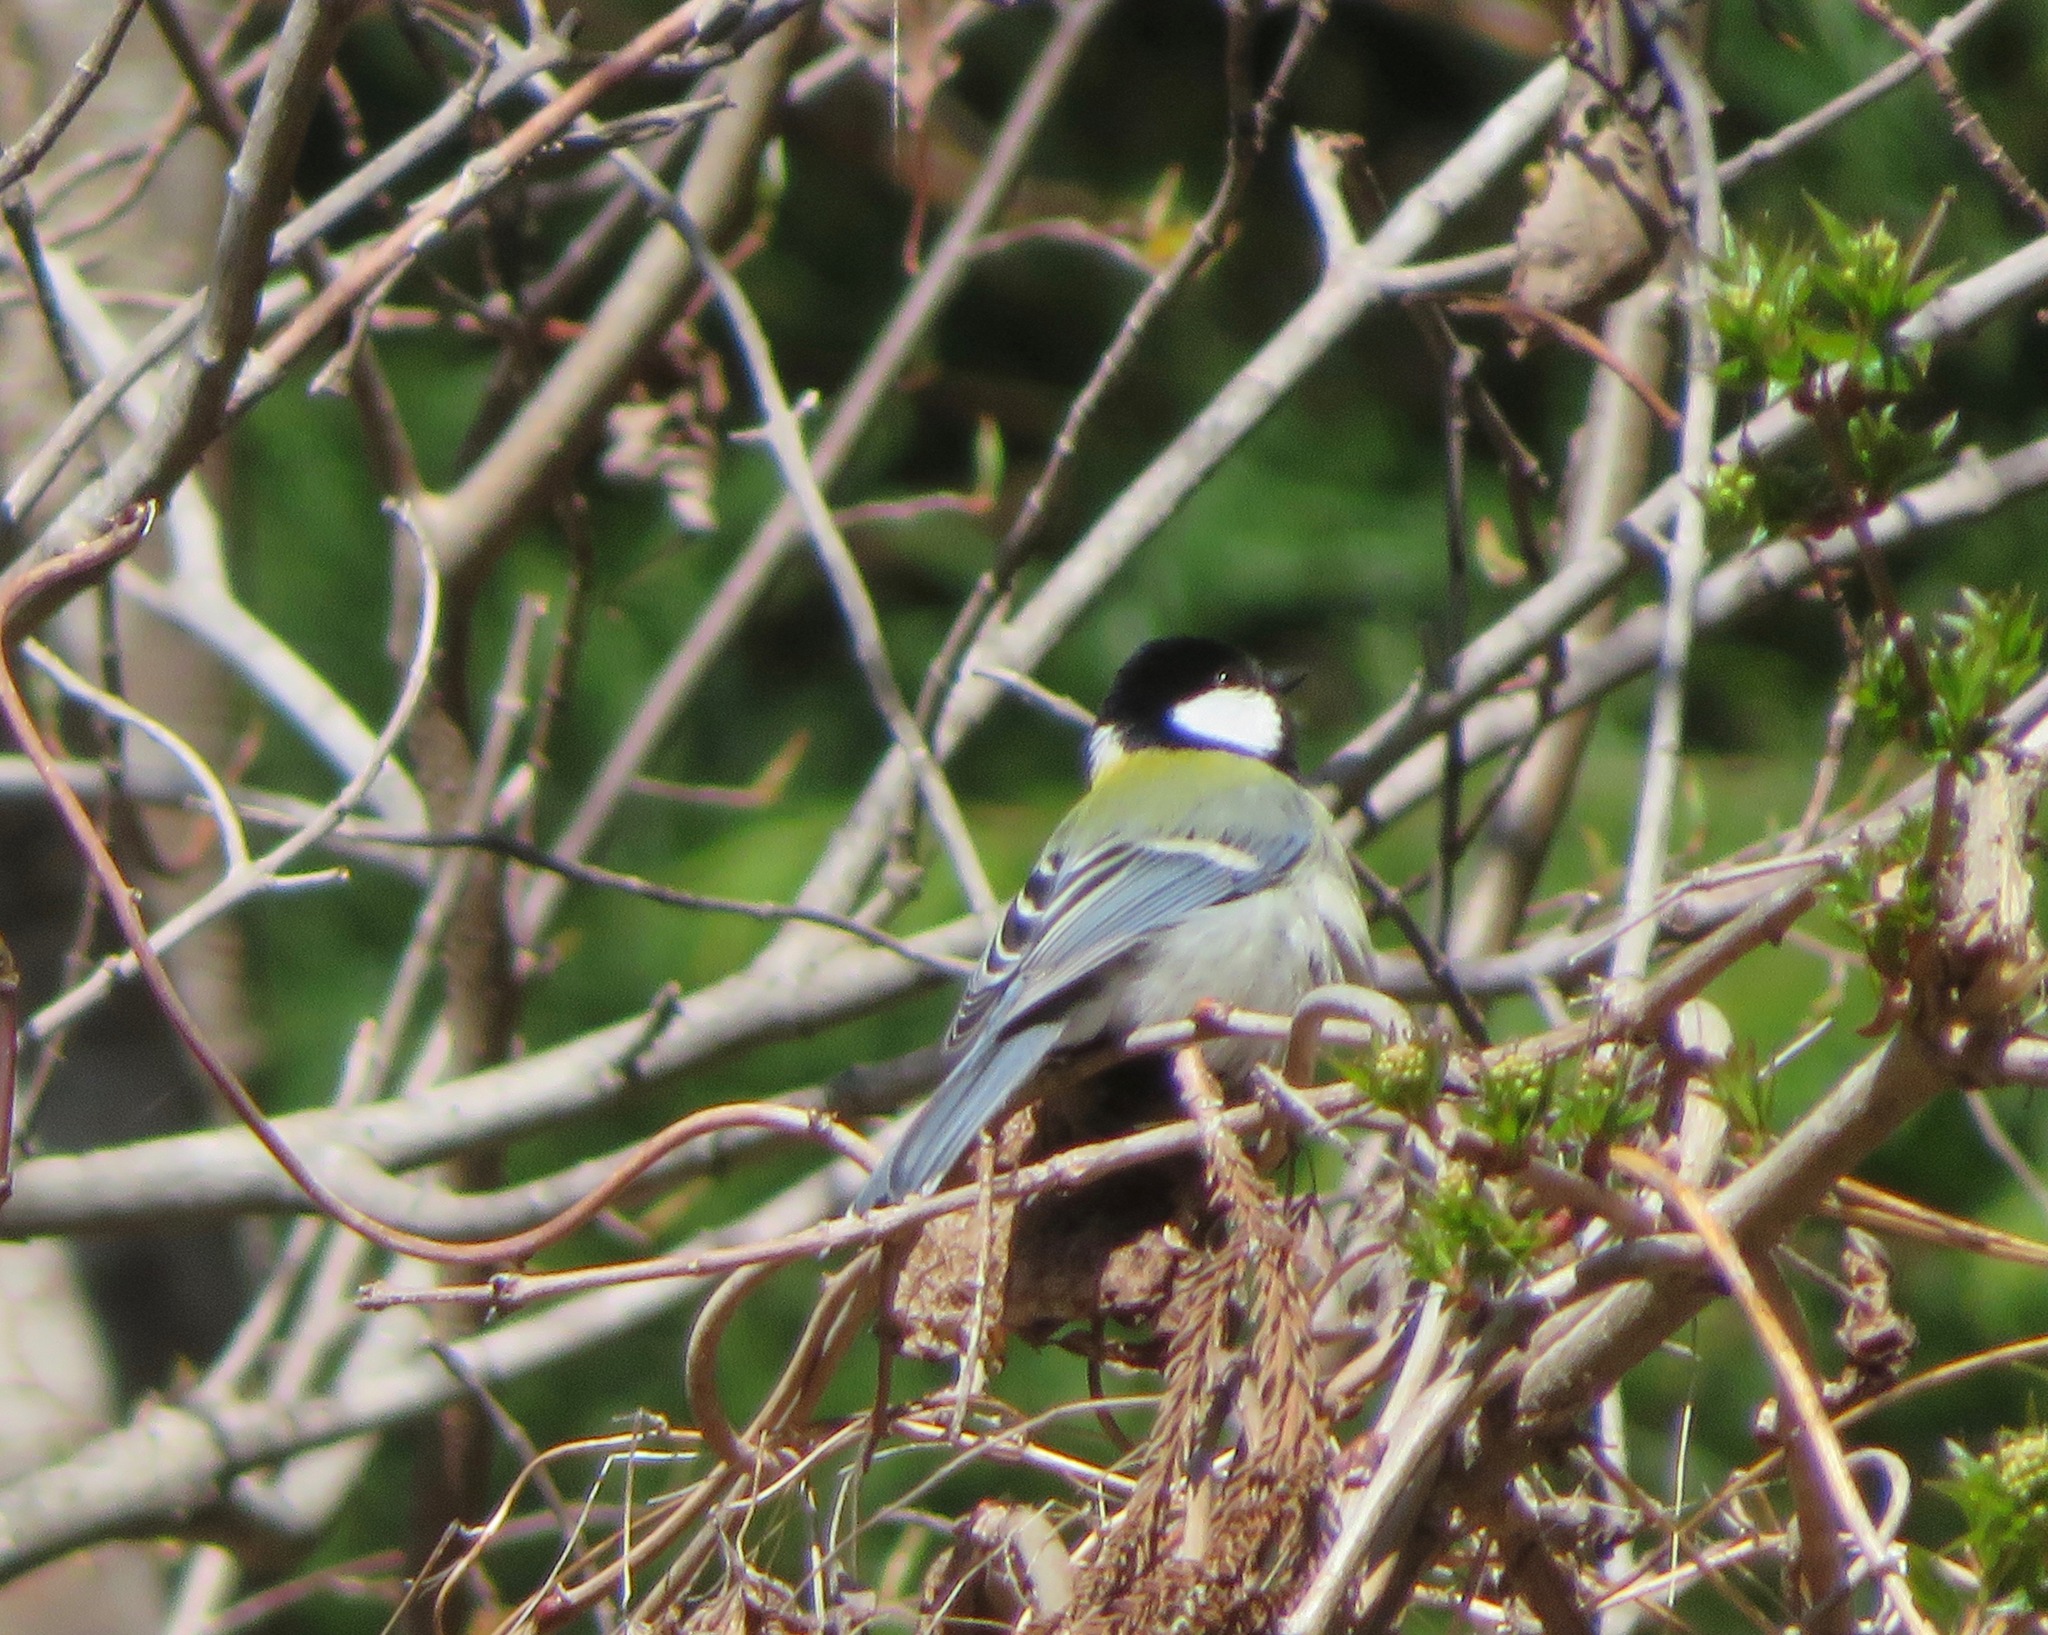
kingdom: Animalia
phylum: Chordata
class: Aves
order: Passeriformes
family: Paridae
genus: Parus
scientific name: Parus minor
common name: Japanese tit
